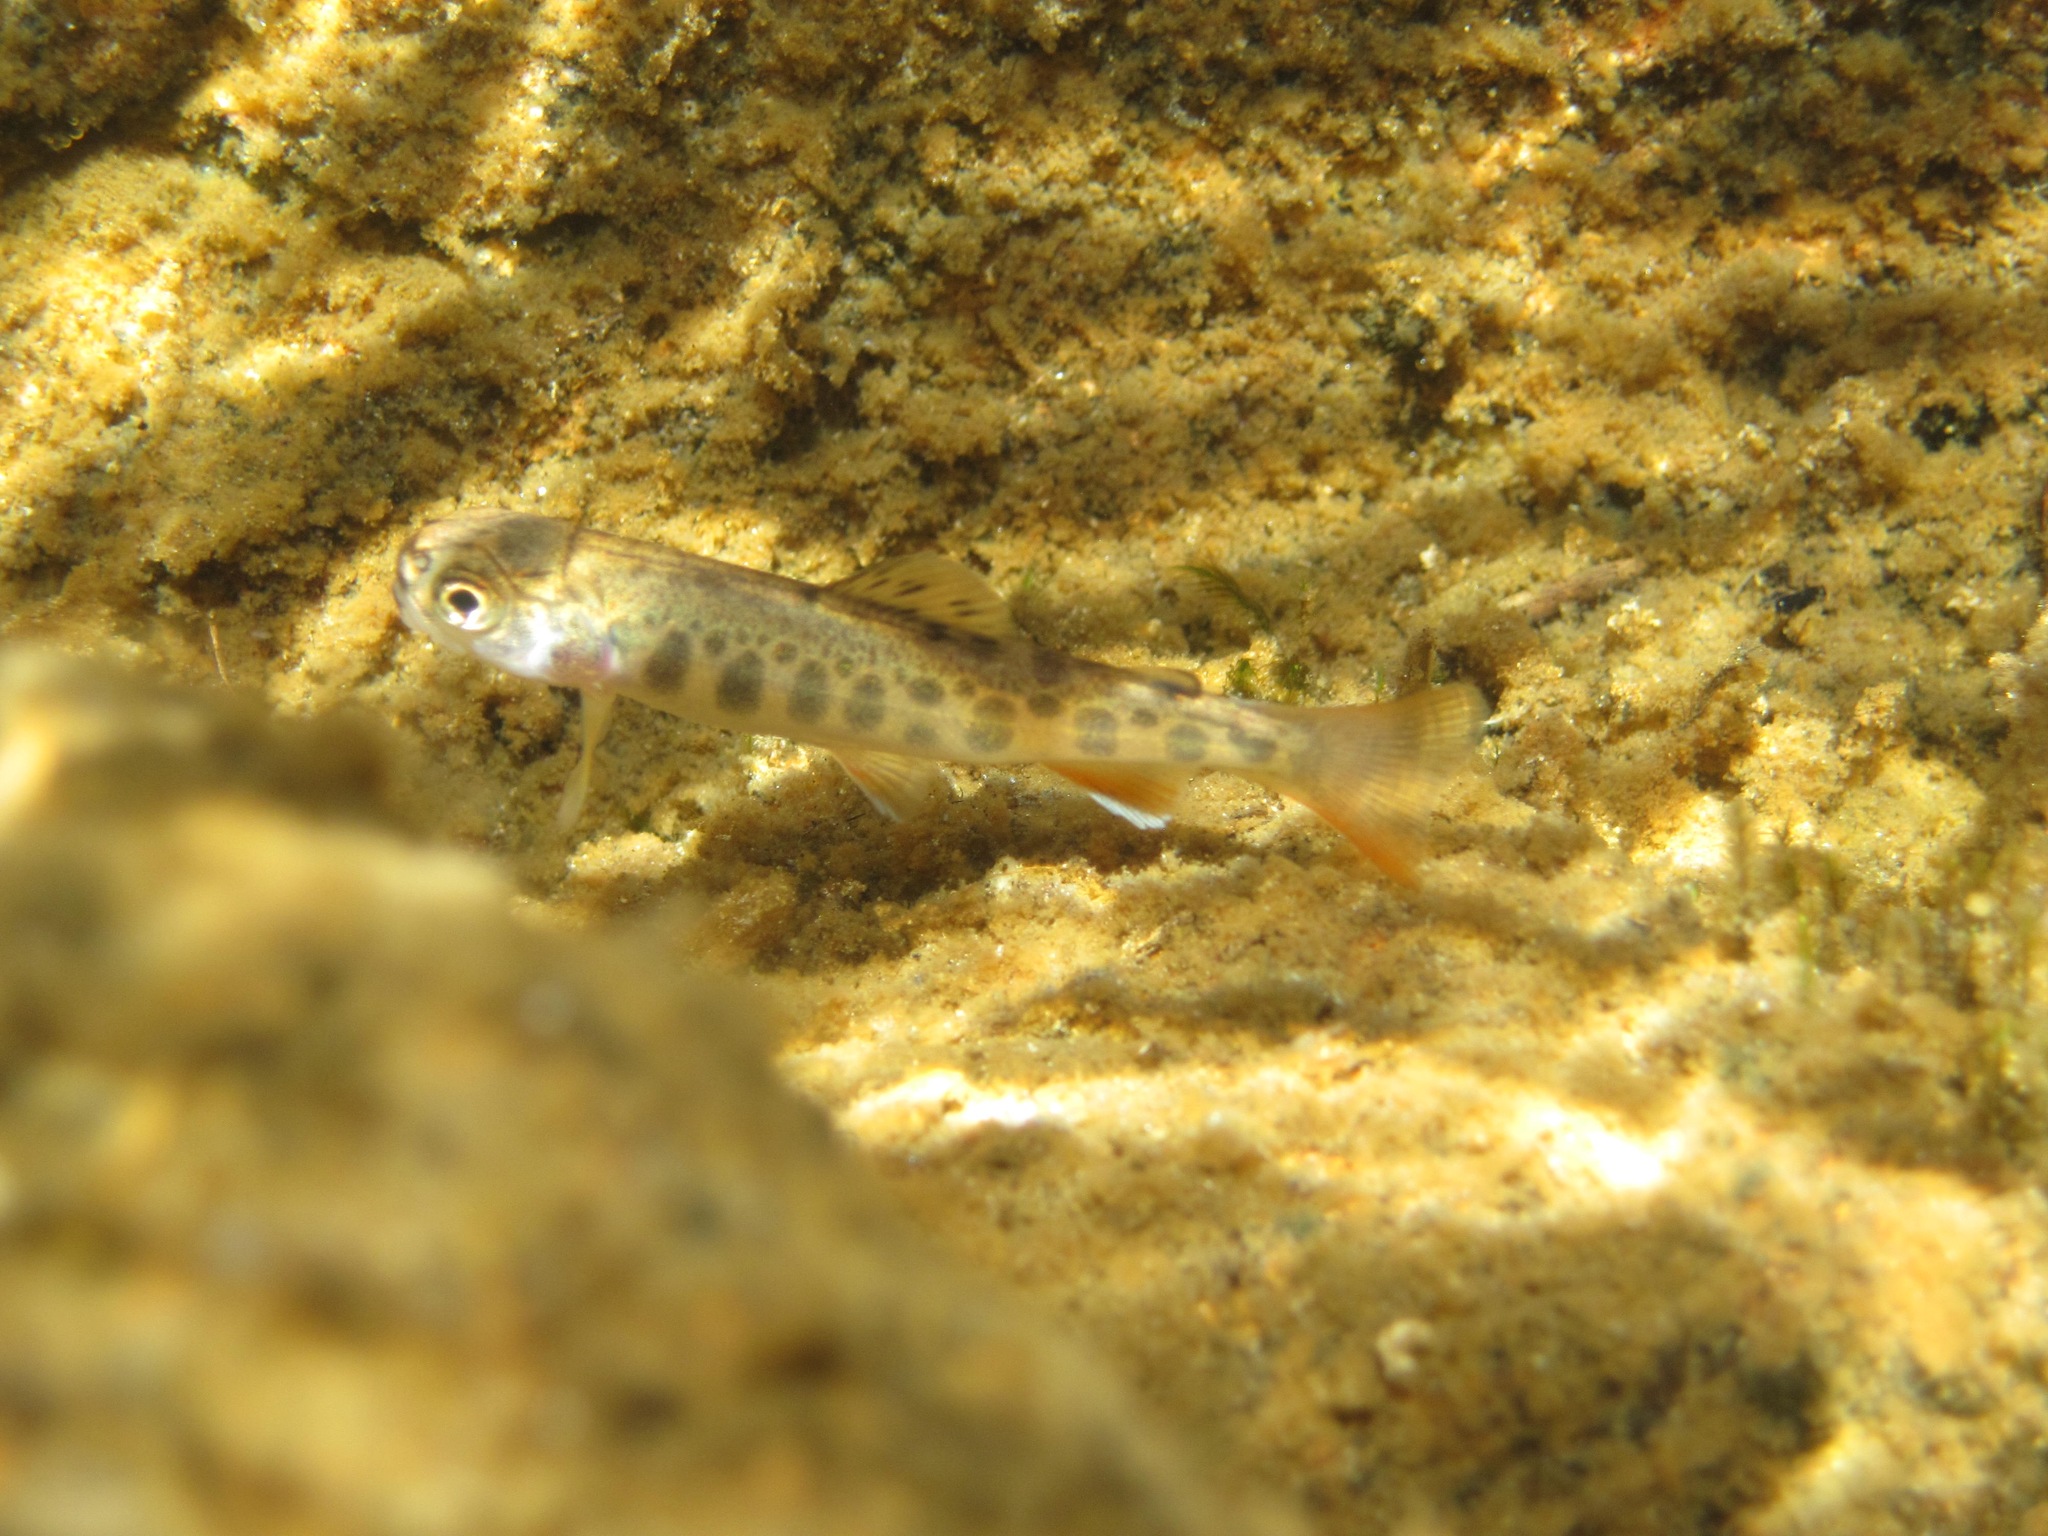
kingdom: Animalia
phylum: Chordata
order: Salmoniformes
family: Salmonidae
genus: Salvelinus
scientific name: Salvelinus fontinalis
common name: Brook trout
